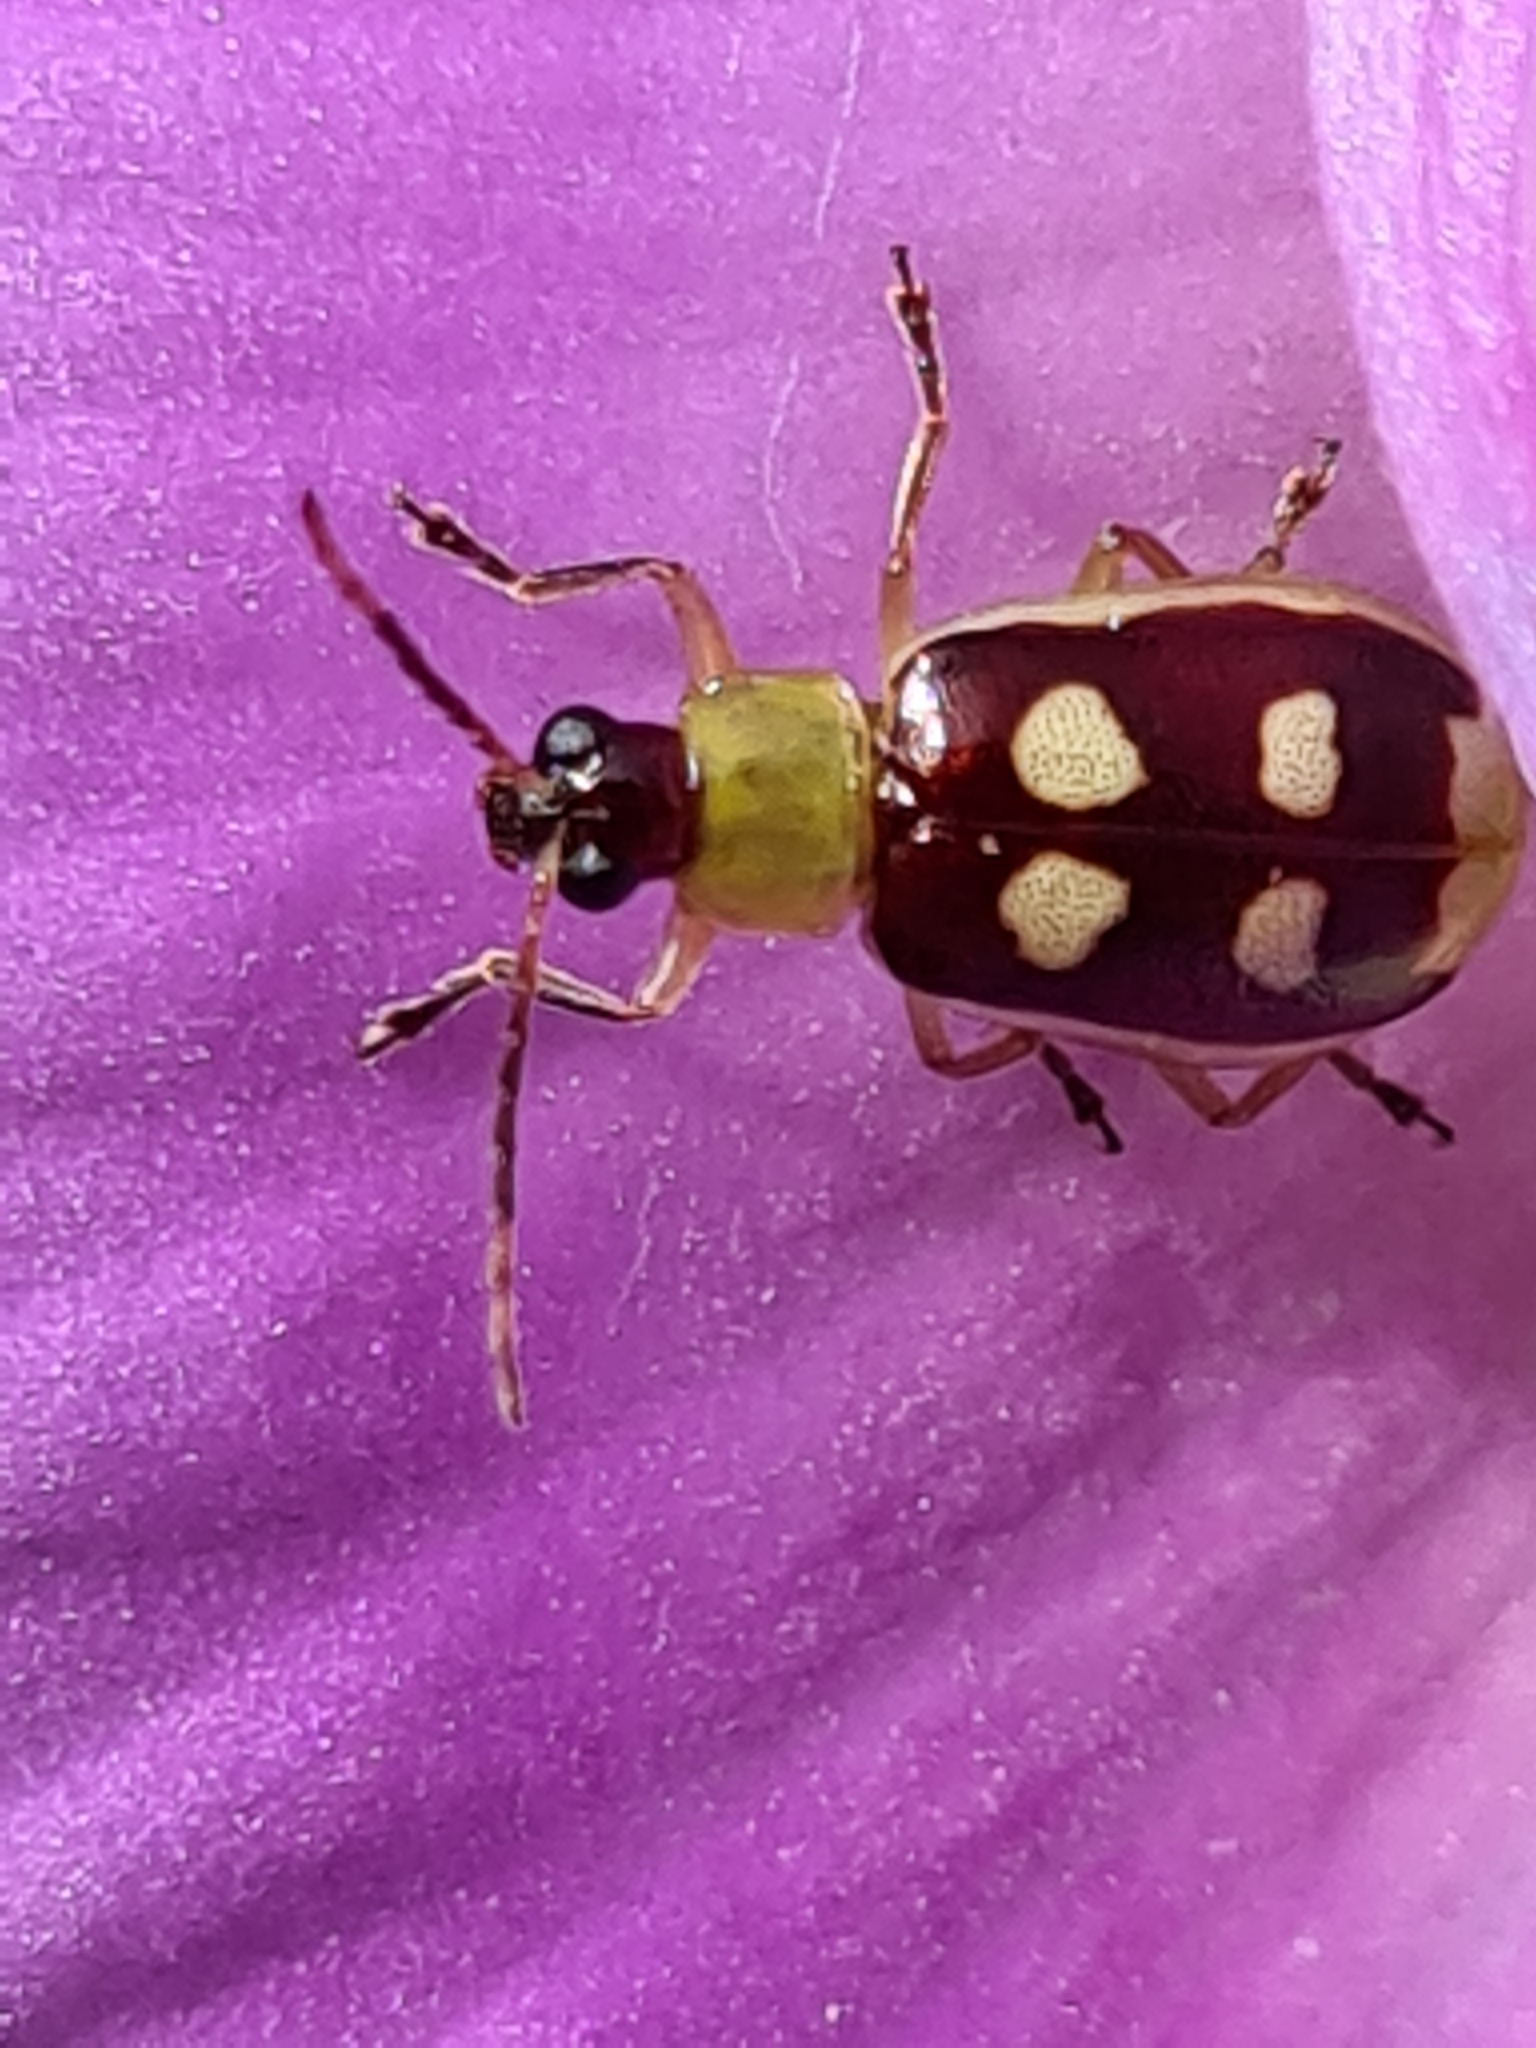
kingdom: Animalia
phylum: Arthropoda
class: Insecta
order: Coleoptera
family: Chrysomelidae
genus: Basiprionota
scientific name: Basiprionota sinuata
